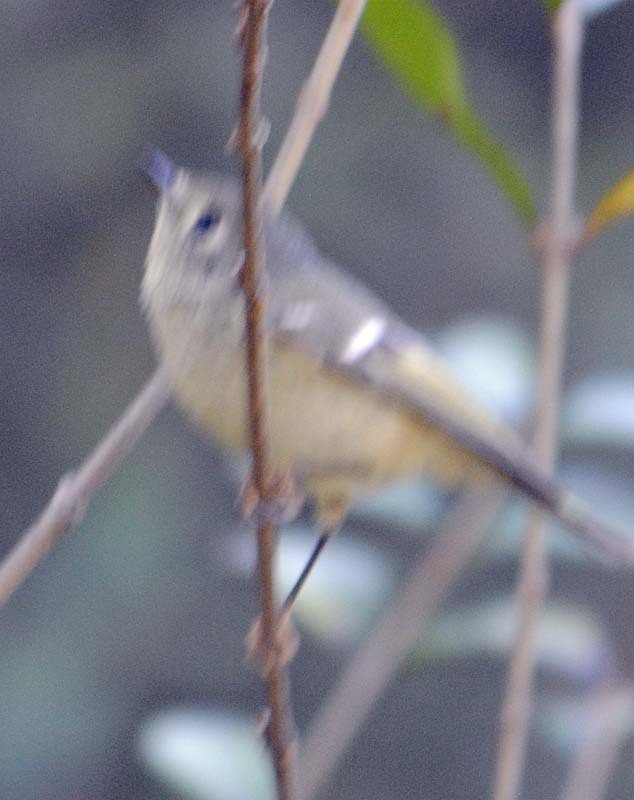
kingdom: Animalia
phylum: Chordata
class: Aves
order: Passeriformes
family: Regulidae
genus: Regulus
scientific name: Regulus calendula
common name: Ruby-crowned kinglet
